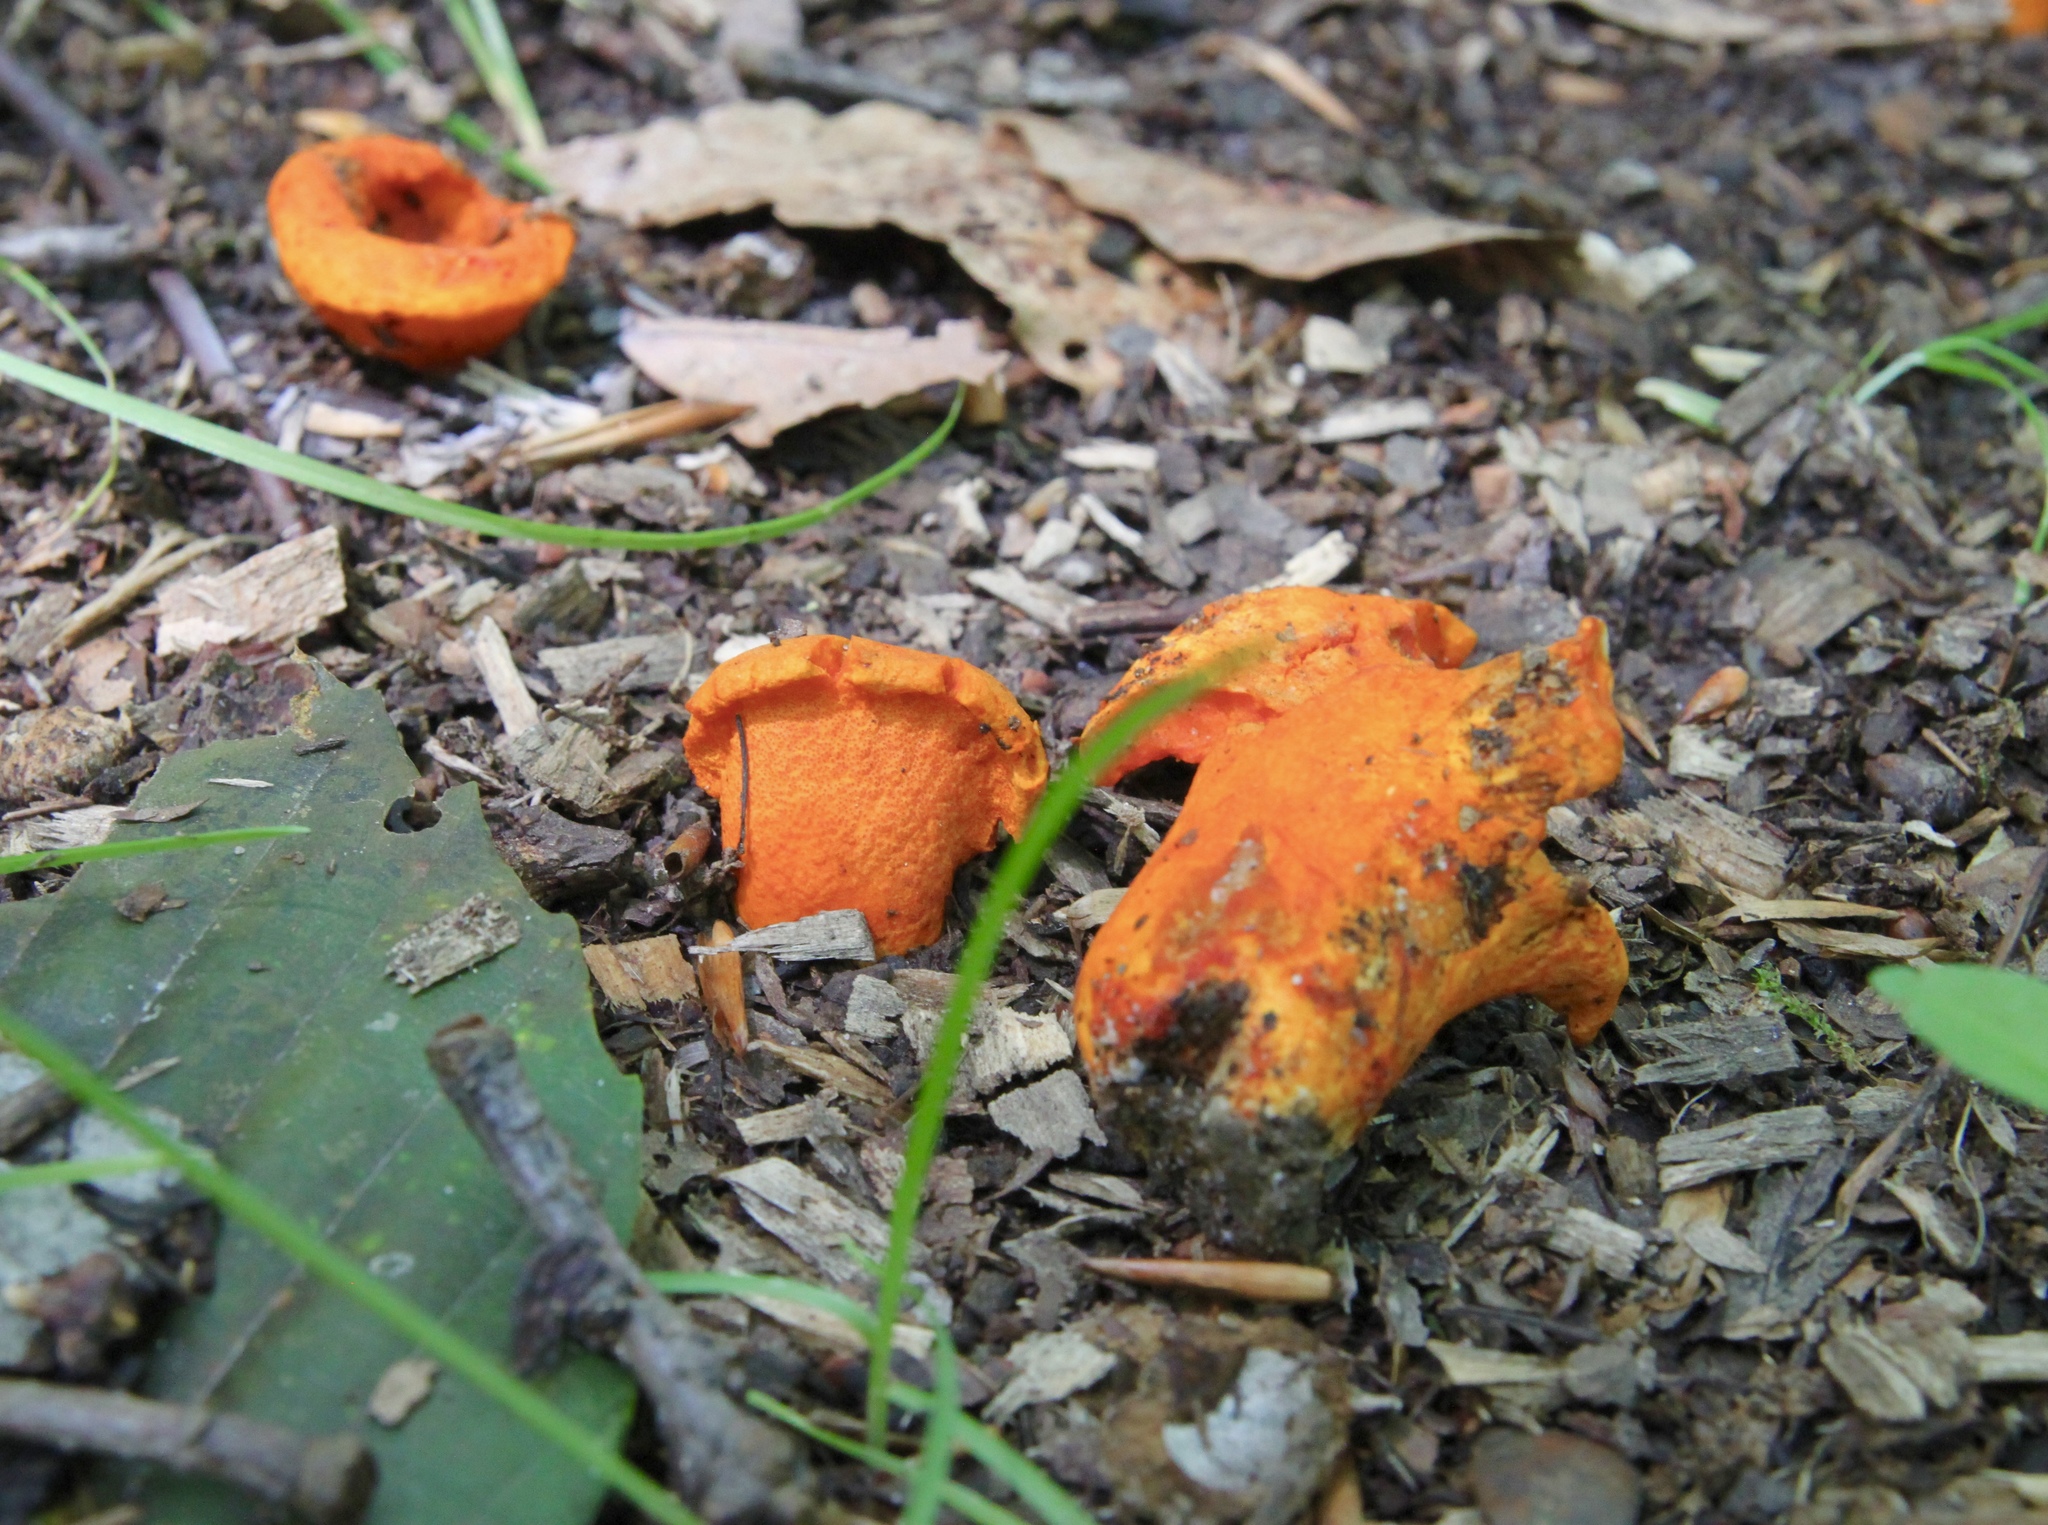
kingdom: Fungi
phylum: Ascomycota
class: Sordariomycetes
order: Hypocreales
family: Hypocreaceae
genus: Hypomyces
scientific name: Hypomyces lactifluorum
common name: Lobster mushroom
